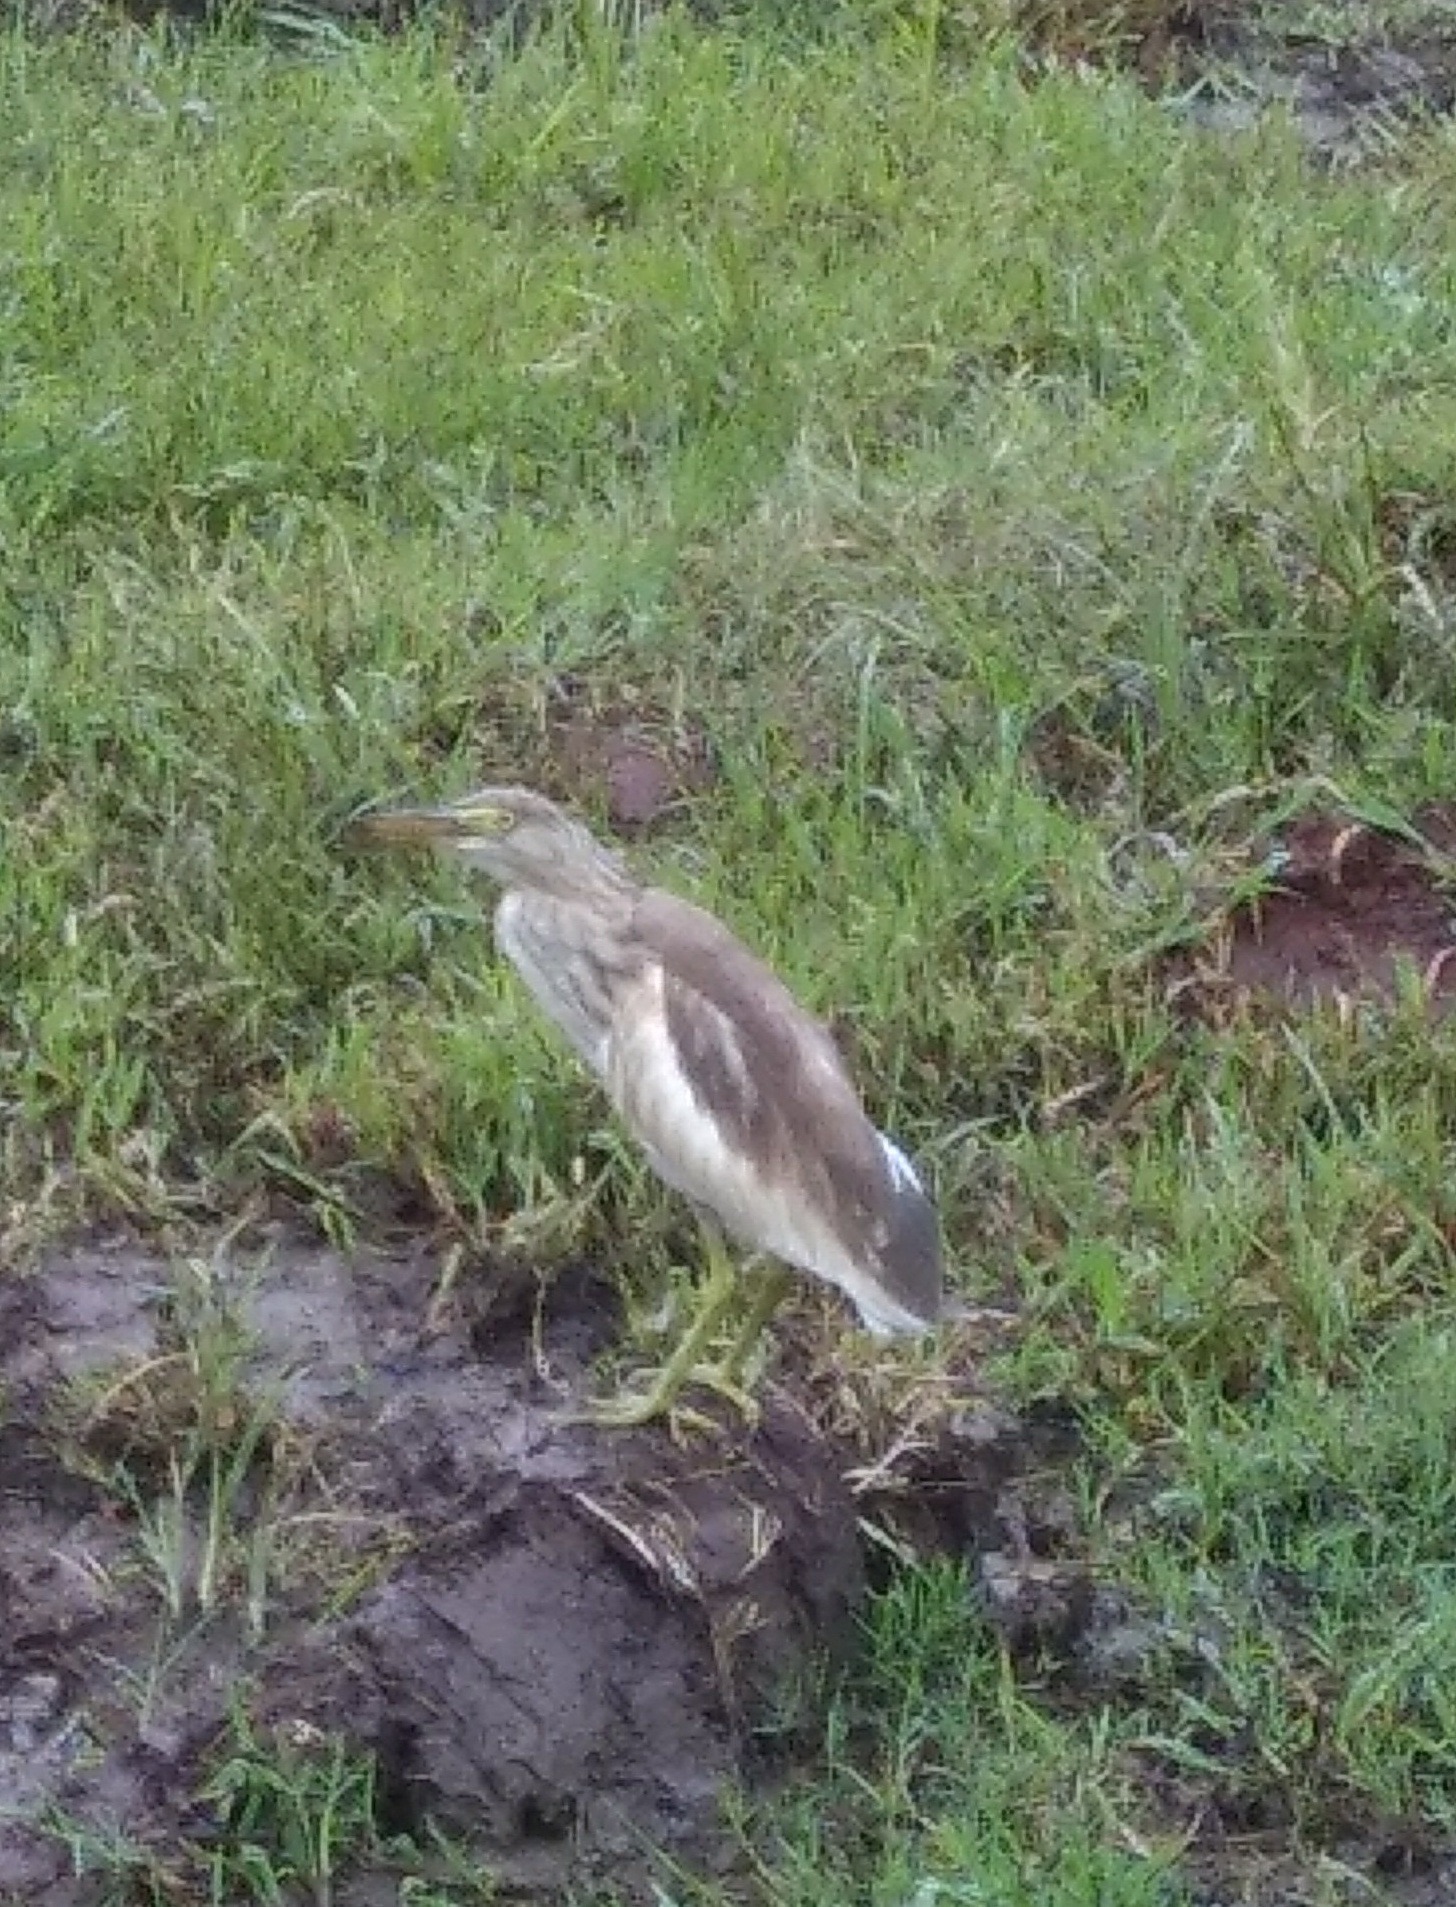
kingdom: Animalia
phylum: Chordata
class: Aves
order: Pelecaniformes
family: Ardeidae
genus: Ardeola
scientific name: Ardeola grayii
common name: Indian pond heron
